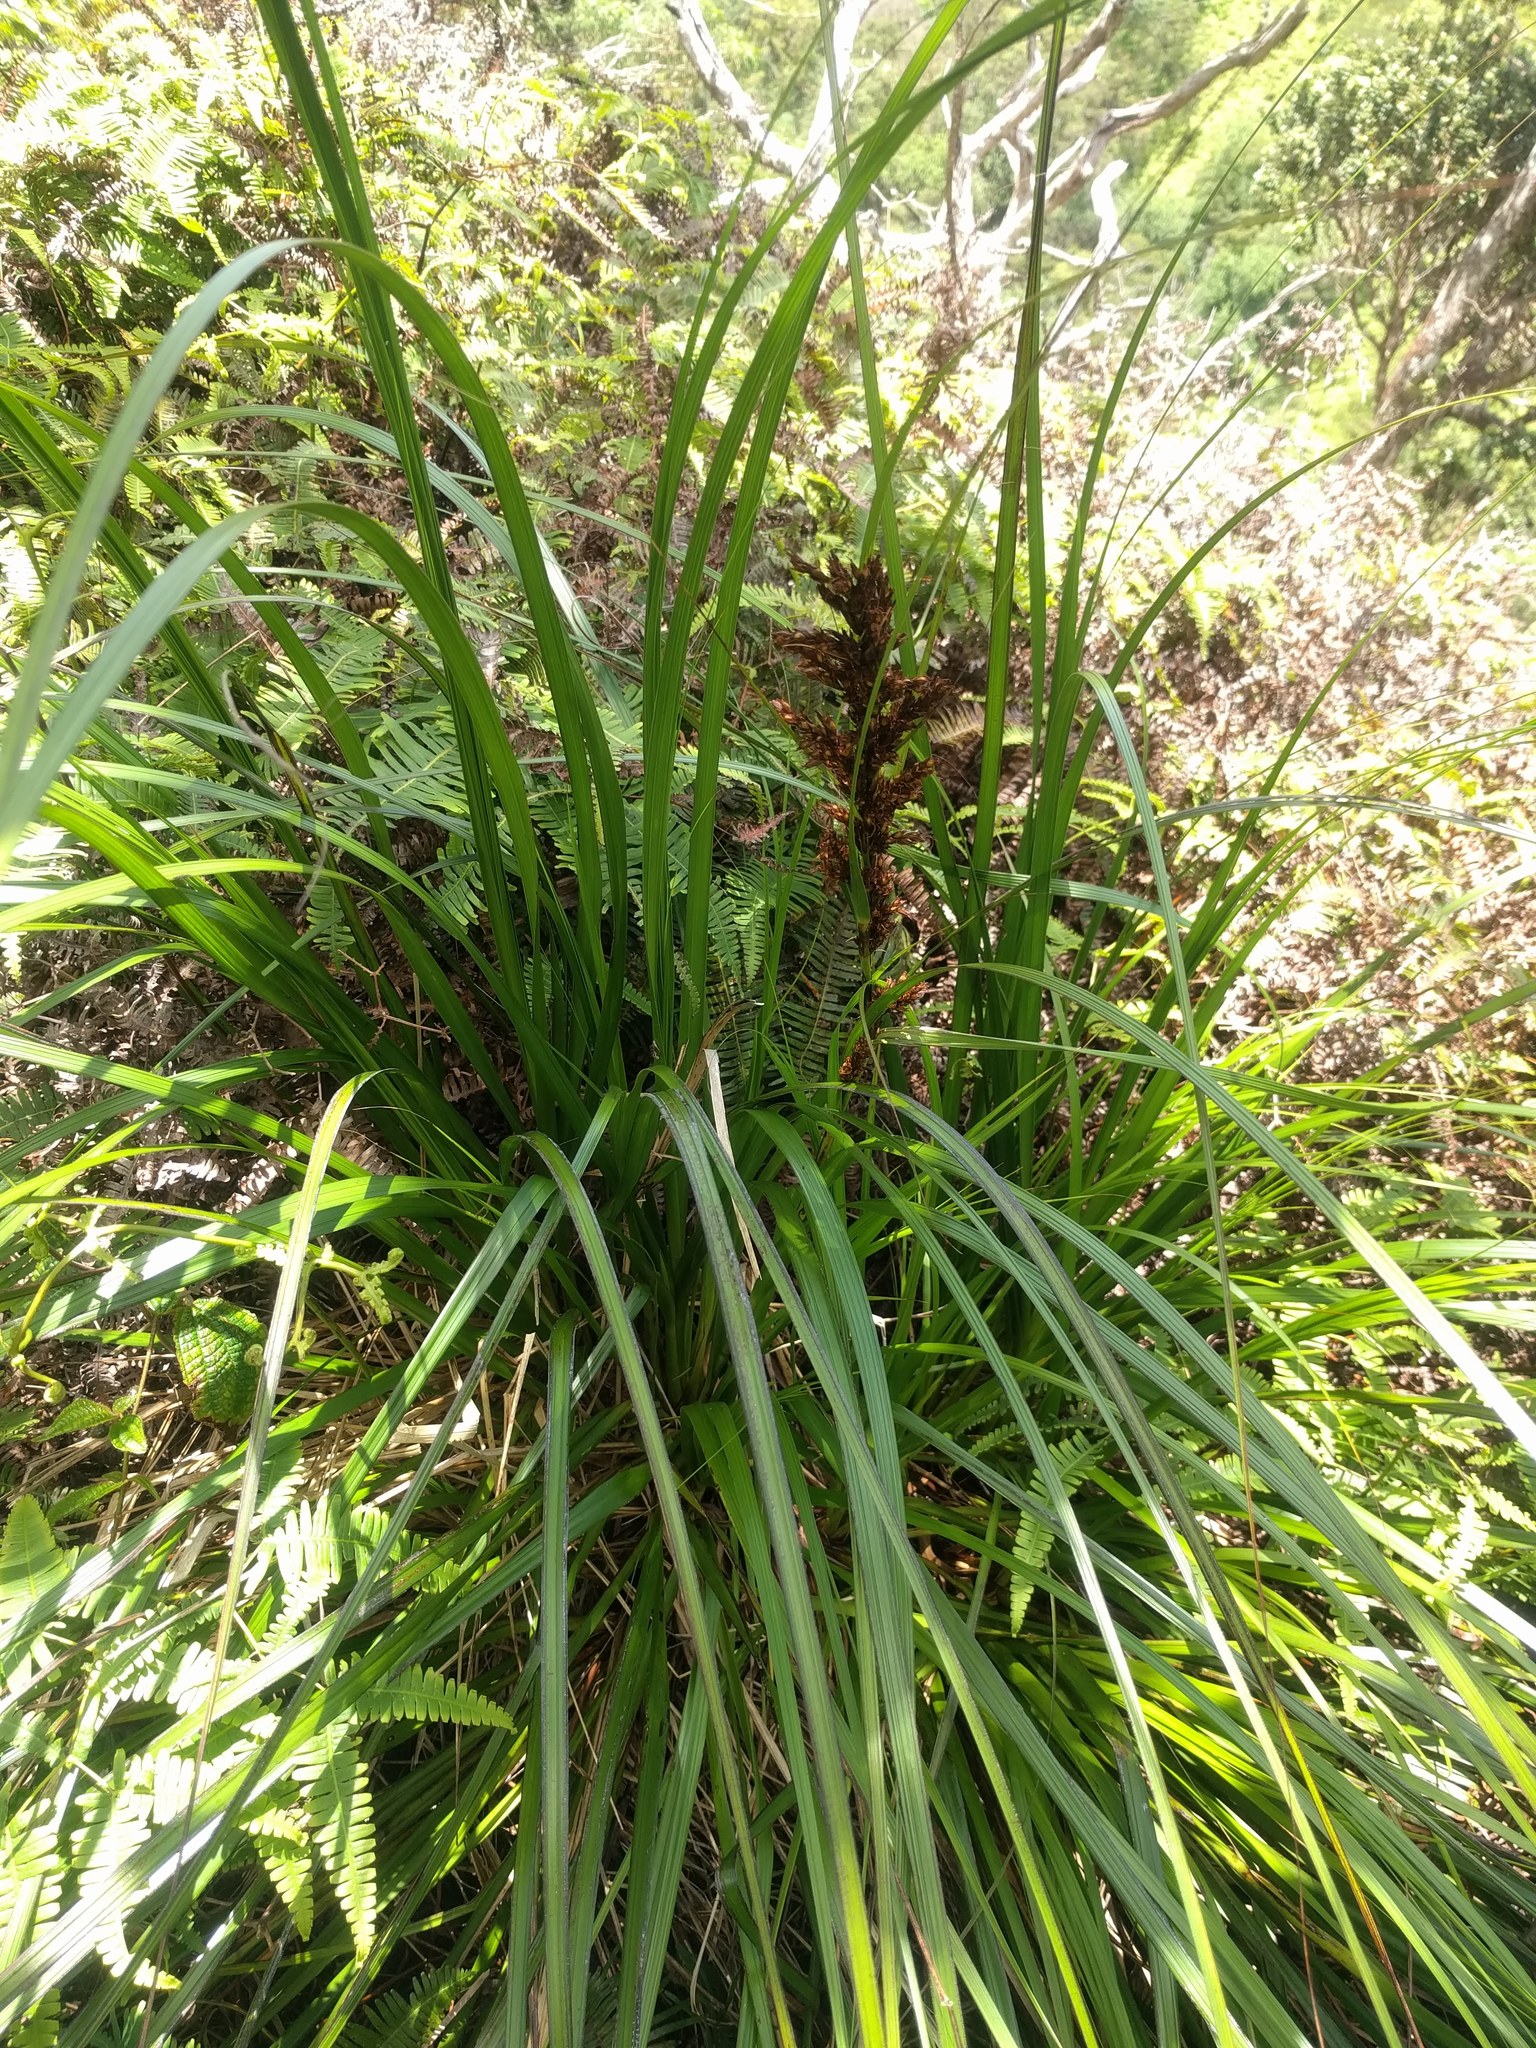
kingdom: Plantae
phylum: Tracheophyta
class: Liliopsida
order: Poales
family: Cyperaceae
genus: Gahnia
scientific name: Gahnia beecheyi
